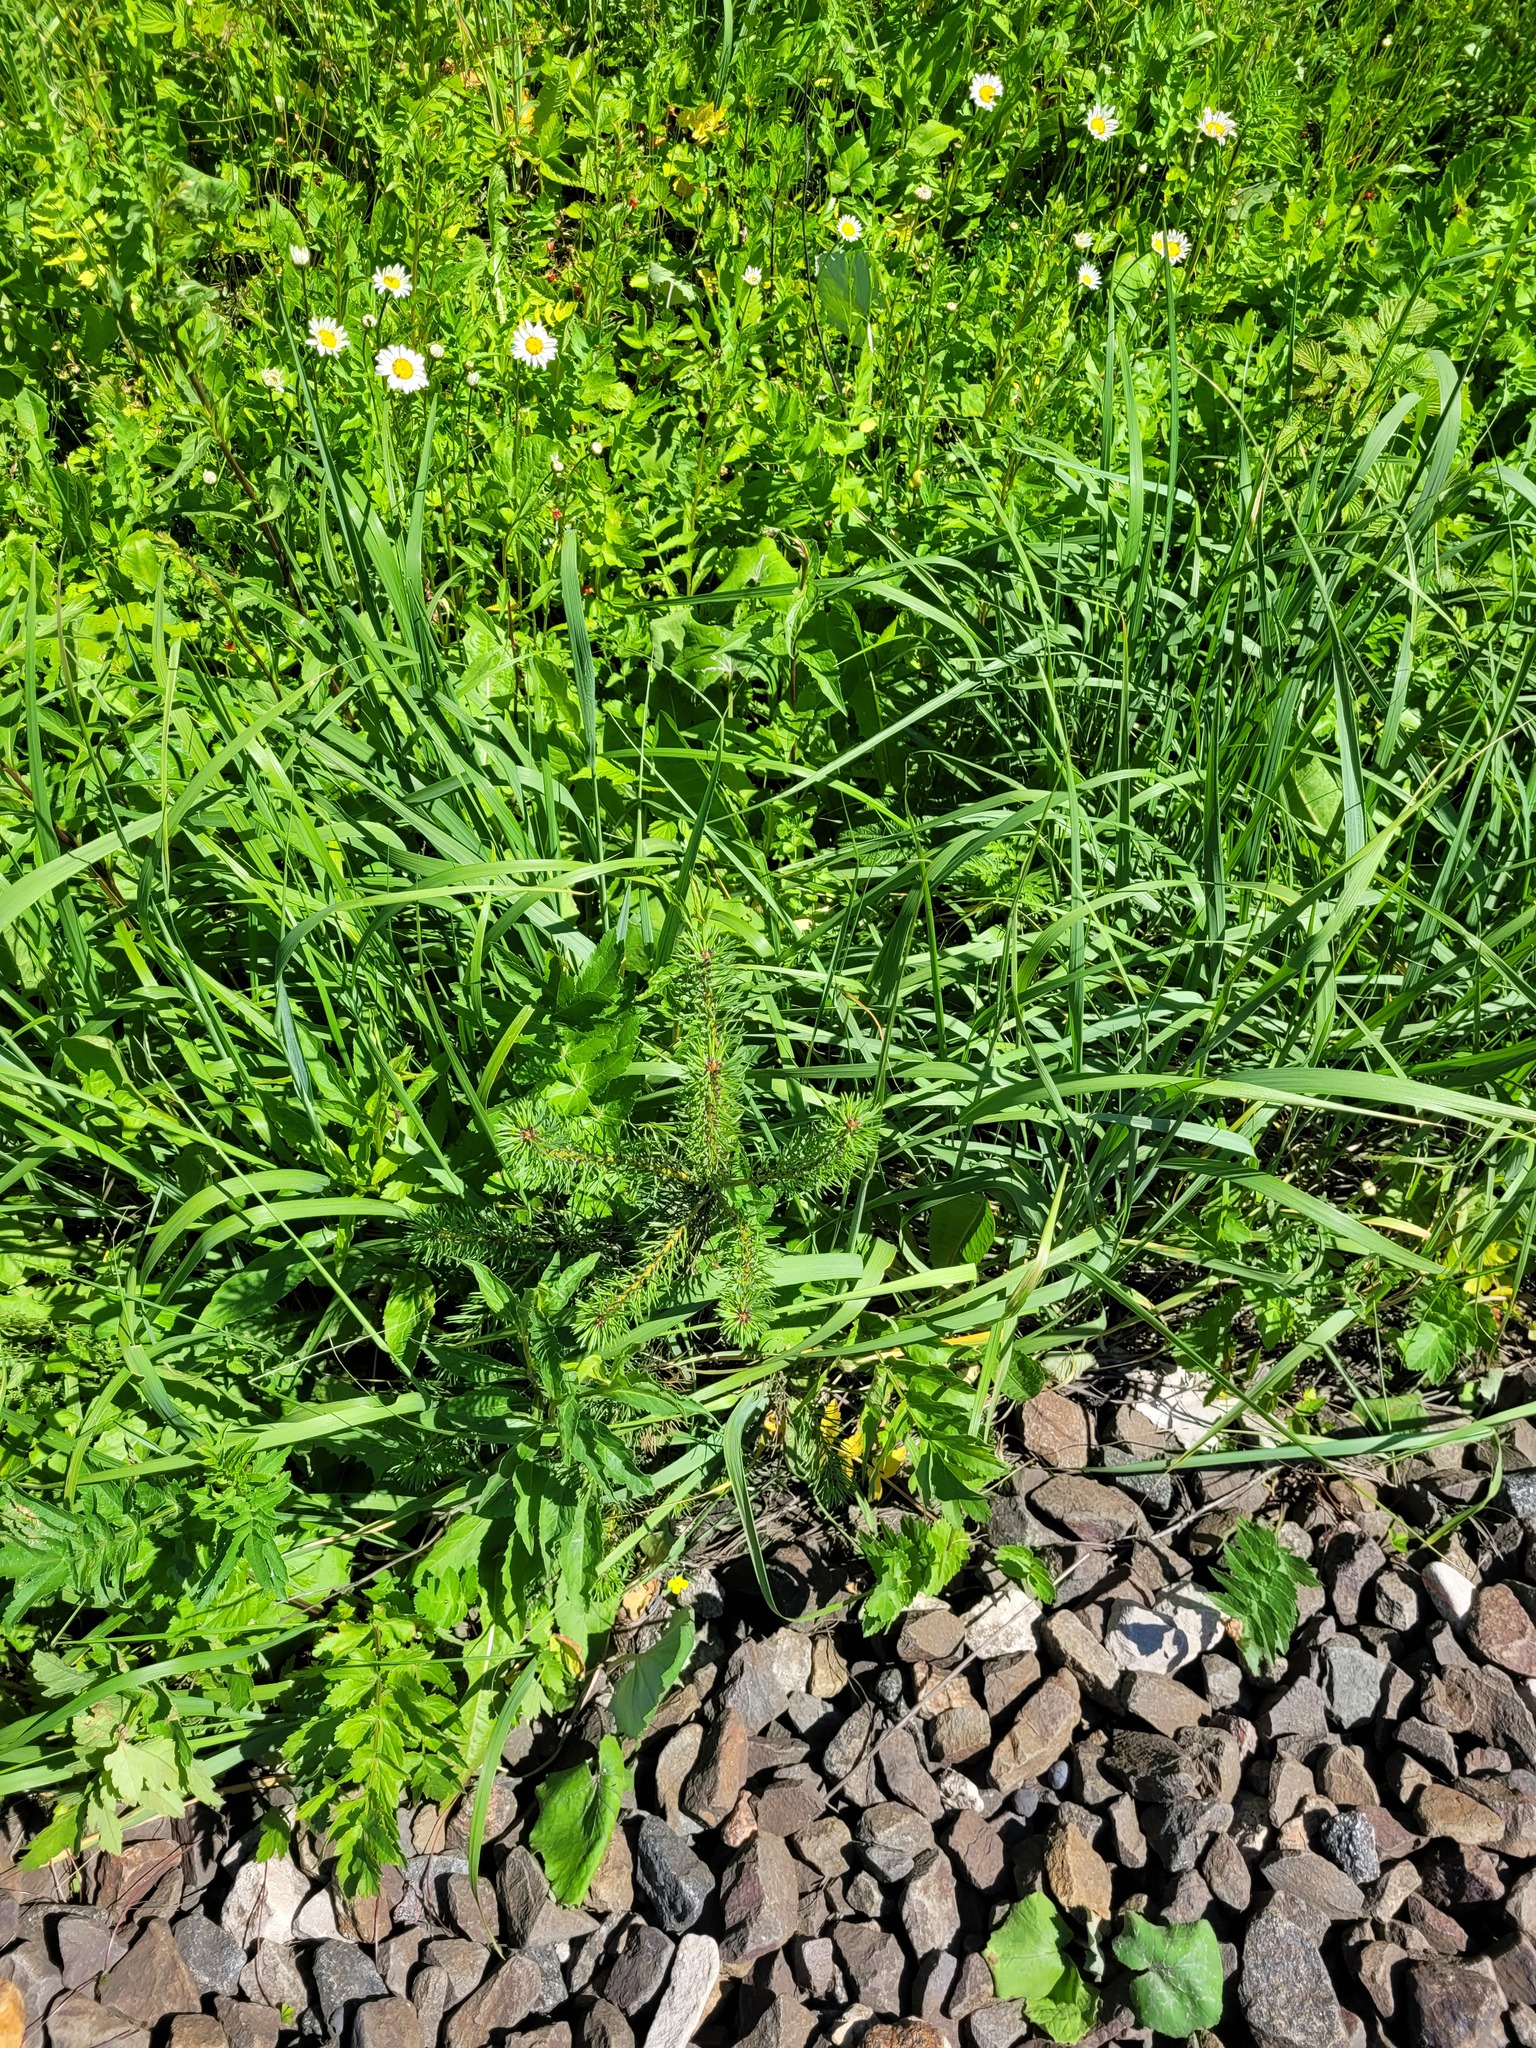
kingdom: Plantae
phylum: Tracheophyta
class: Pinopsida
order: Pinales
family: Pinaceae
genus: Pinus
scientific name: Pinus sylvestris
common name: Scots pine
